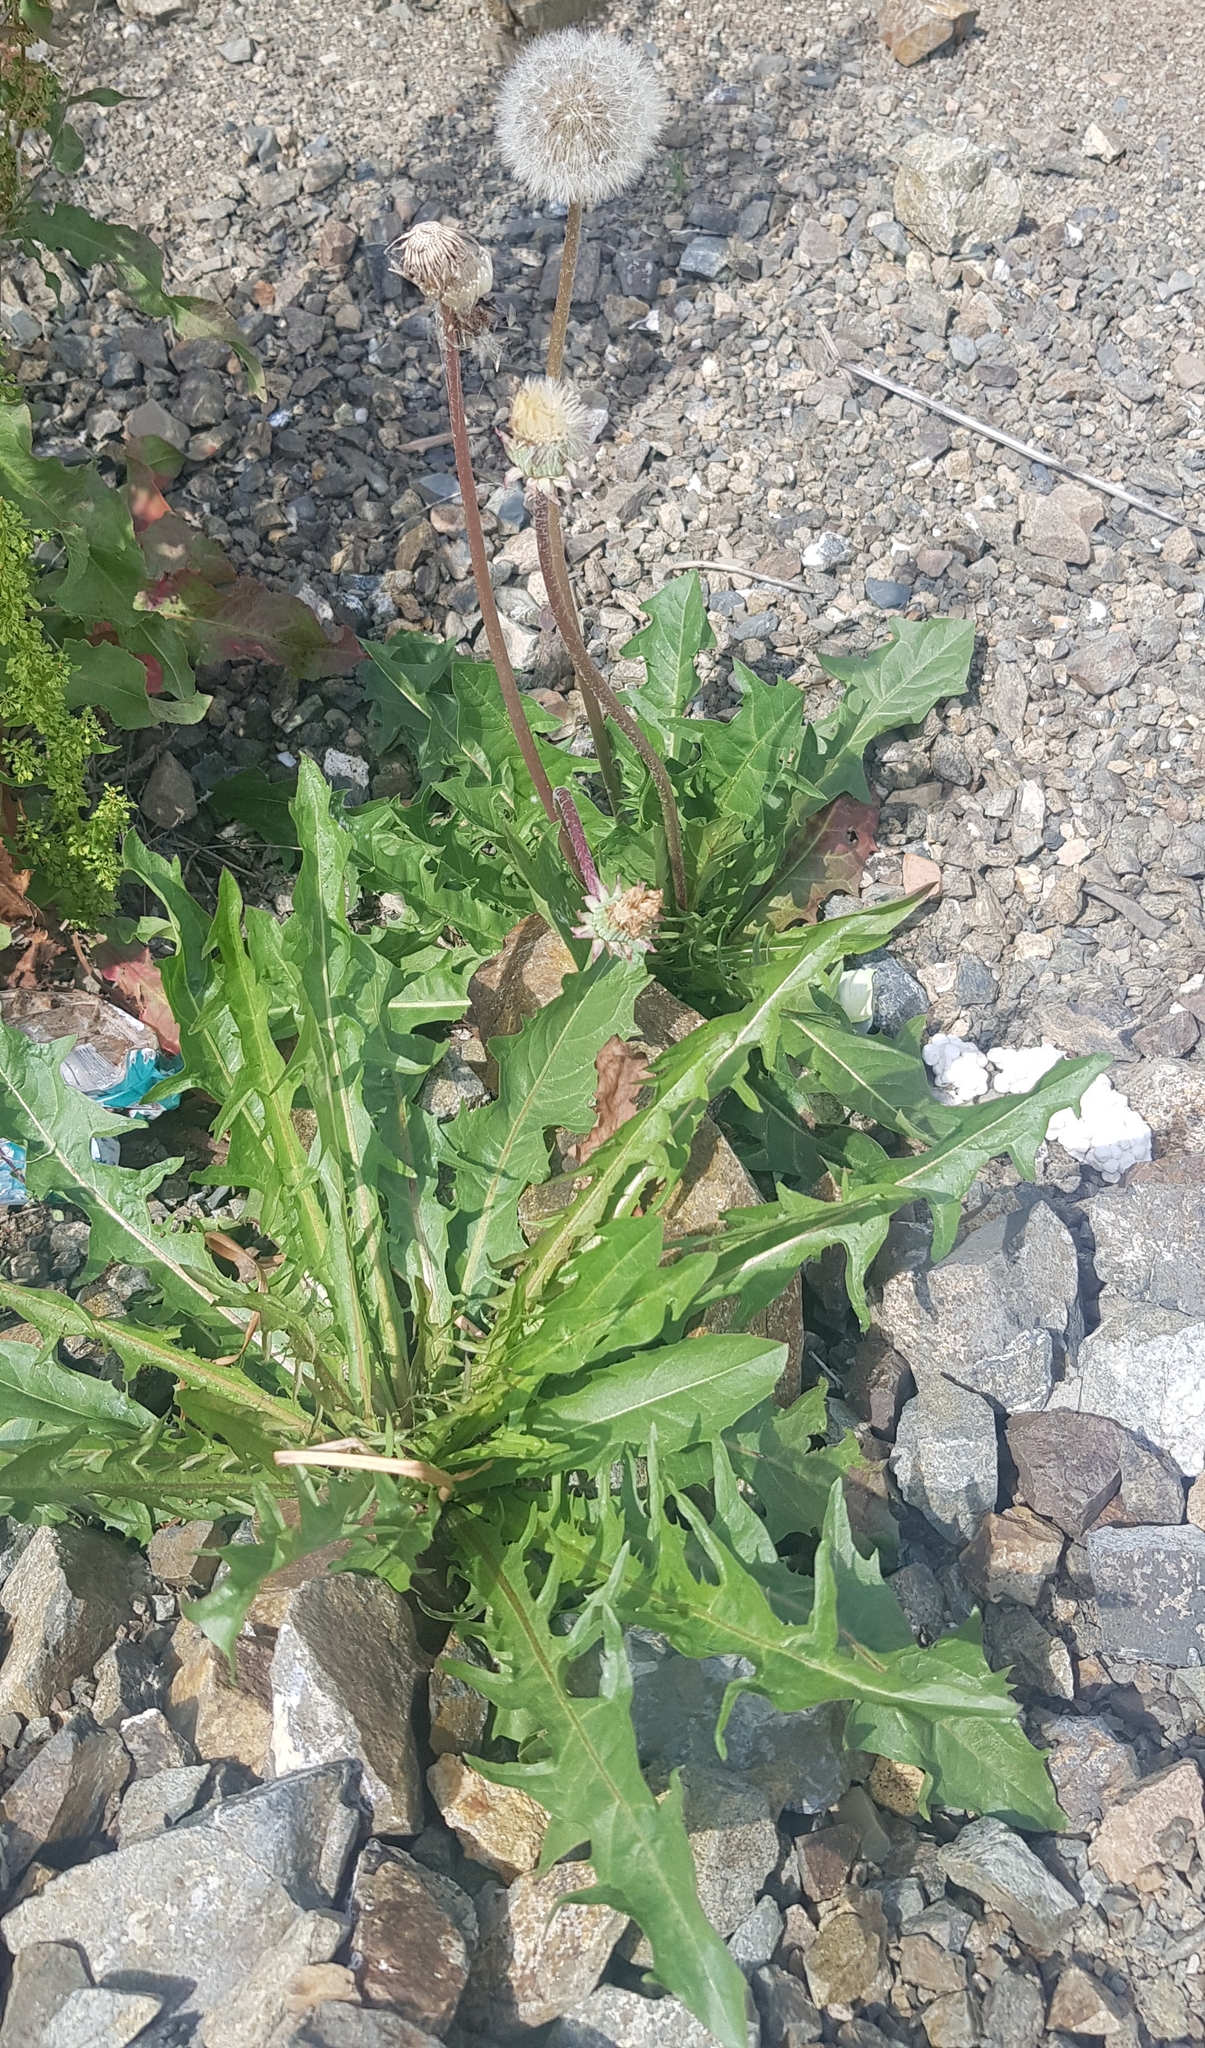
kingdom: Plantae
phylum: Tracheophyta
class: Magnoliopsida
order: Asterales
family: Asteraceae
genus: Taraxacum
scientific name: Taraxacum officinale
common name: Common dandelion
